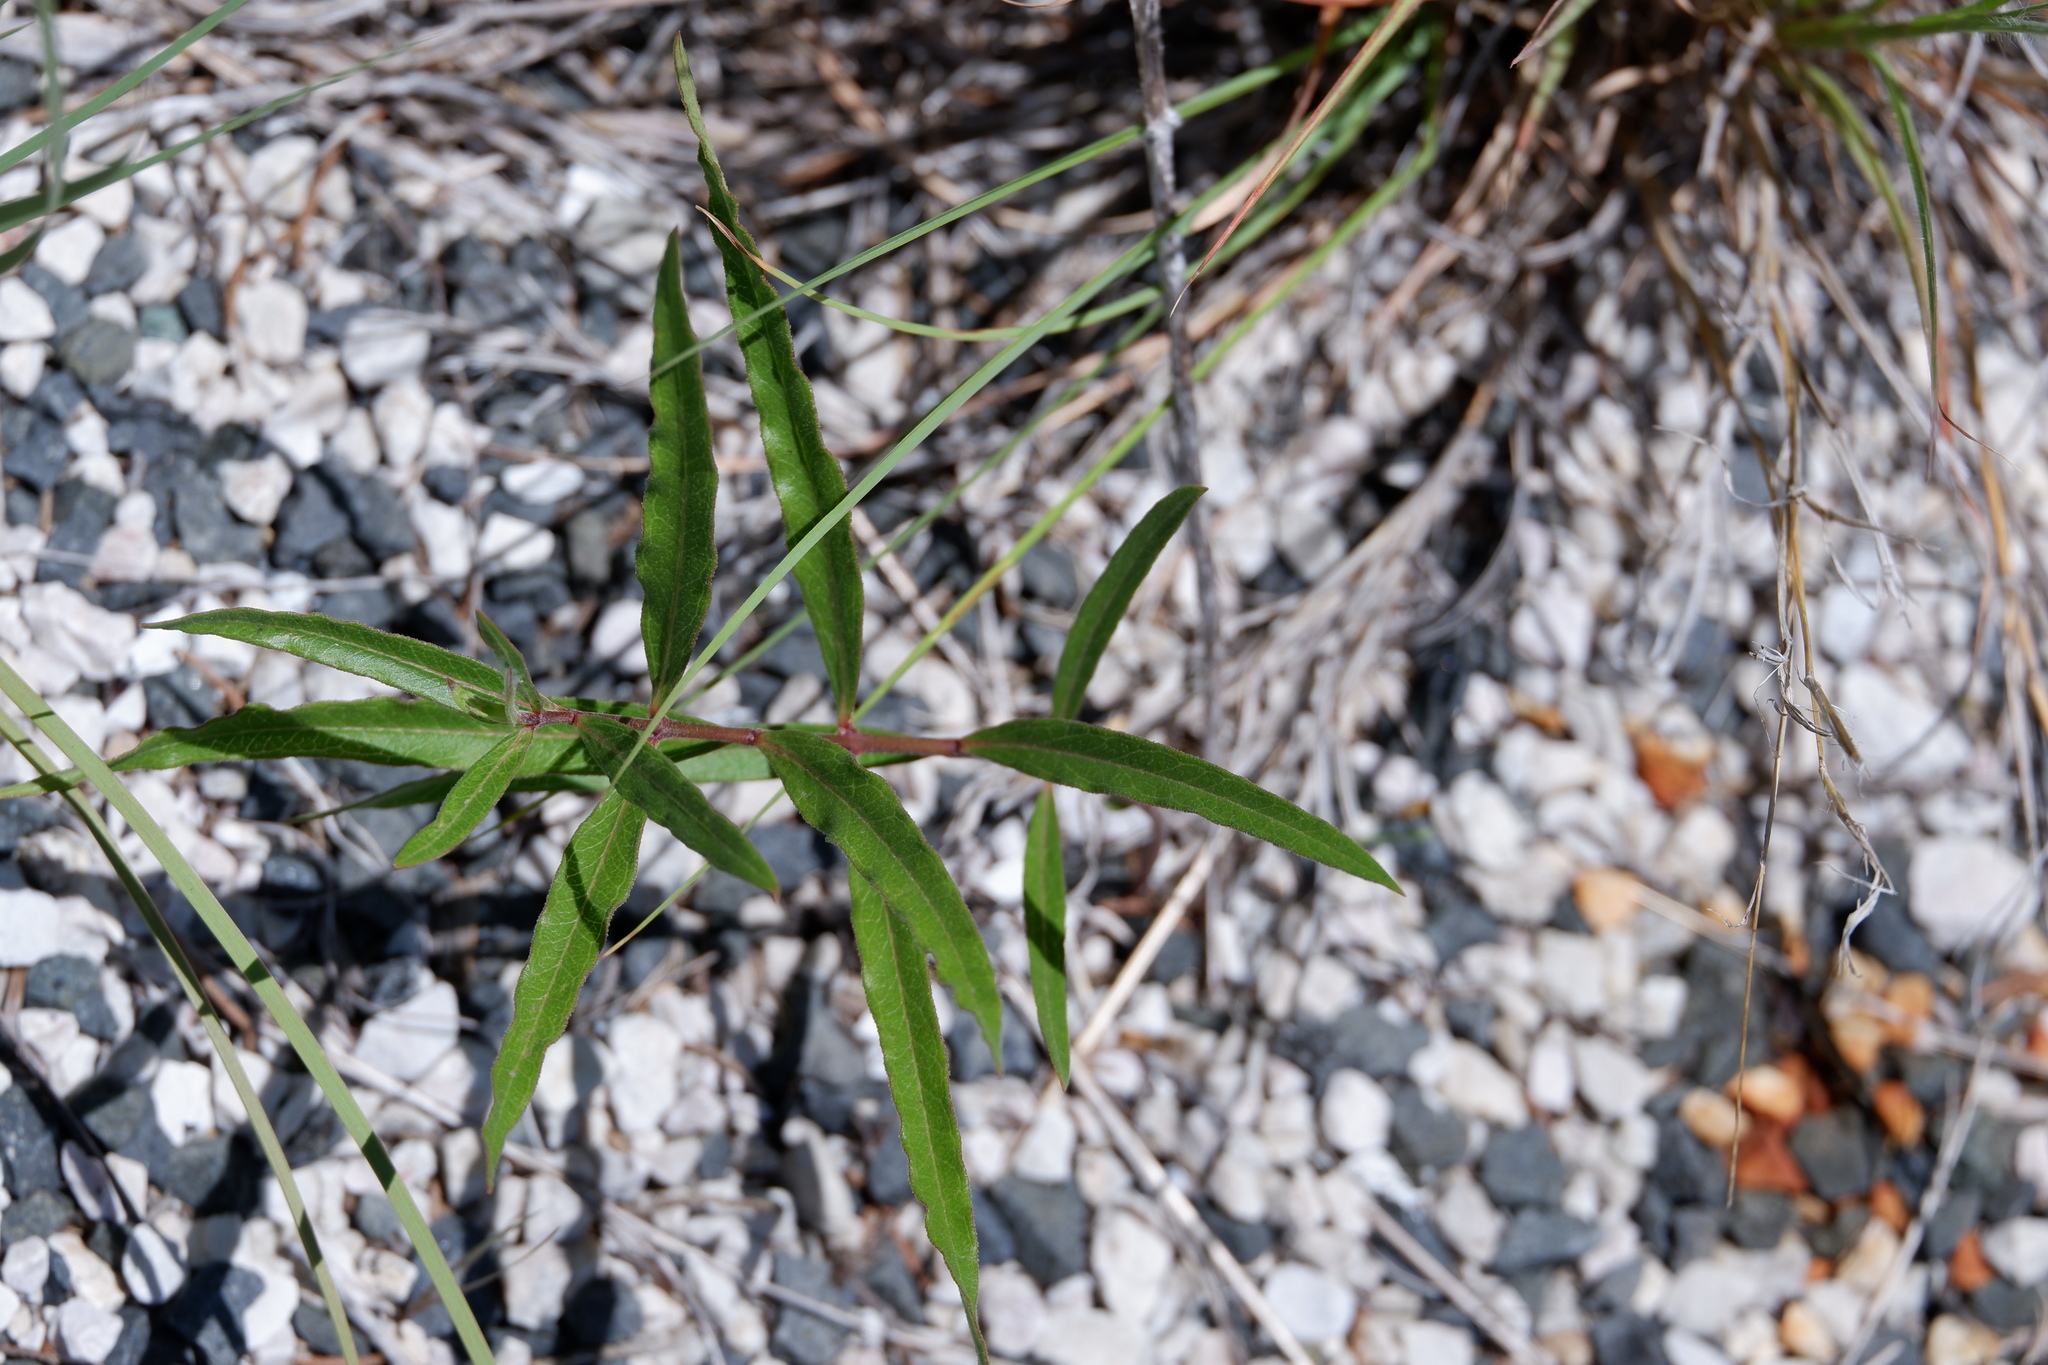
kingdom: Plantae
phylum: Tracheophyta
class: Magnoliopsida
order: Gentianales
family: Apocynaceae
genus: Asclepias
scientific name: Asclepias viridiflora
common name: Green comet milkweed
